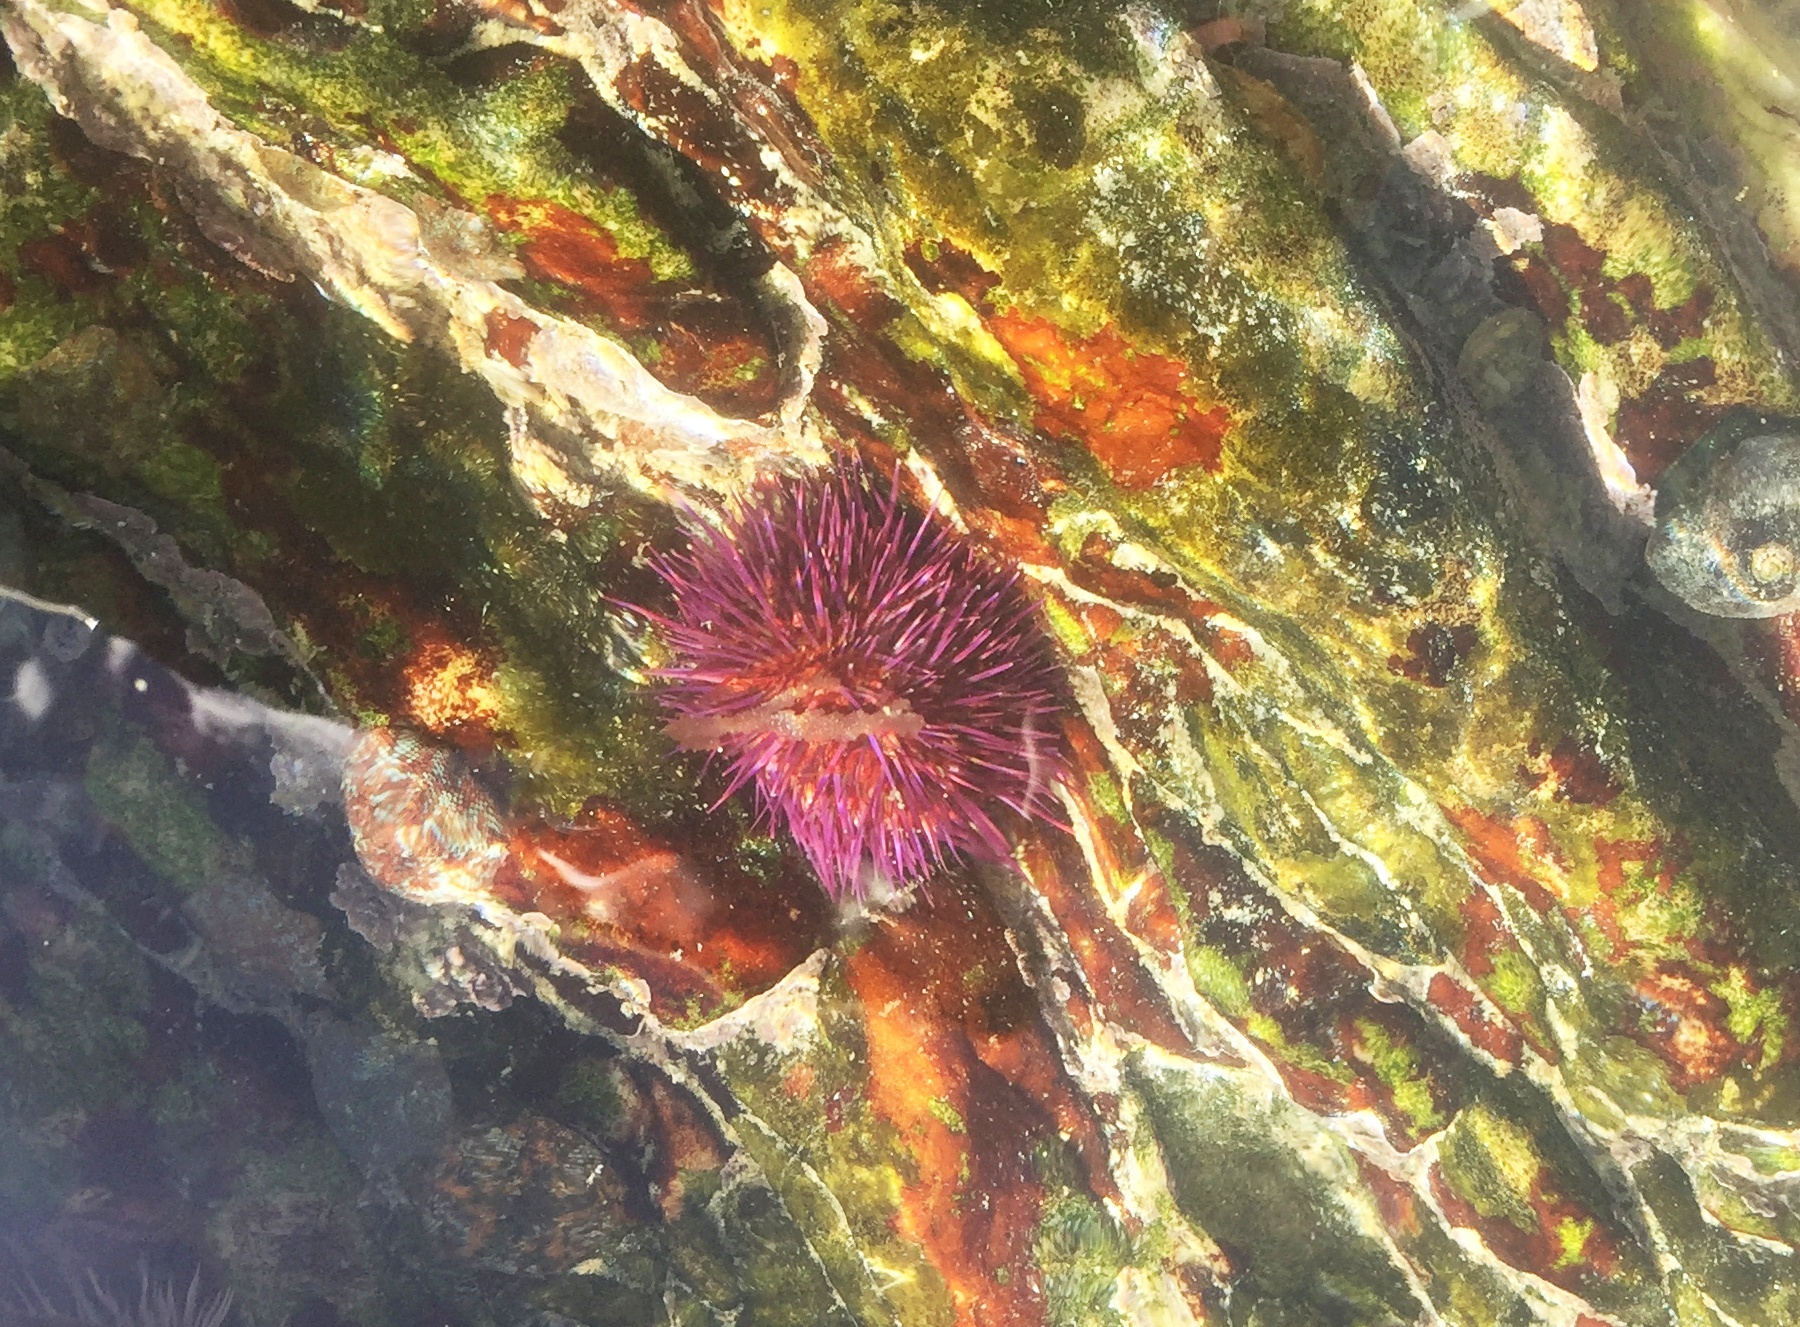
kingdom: Animalia
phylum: Echinodermata
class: Echinoidea
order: Camarodonta
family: Parechinidae
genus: Parechinus
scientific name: Parechinus angulosus
